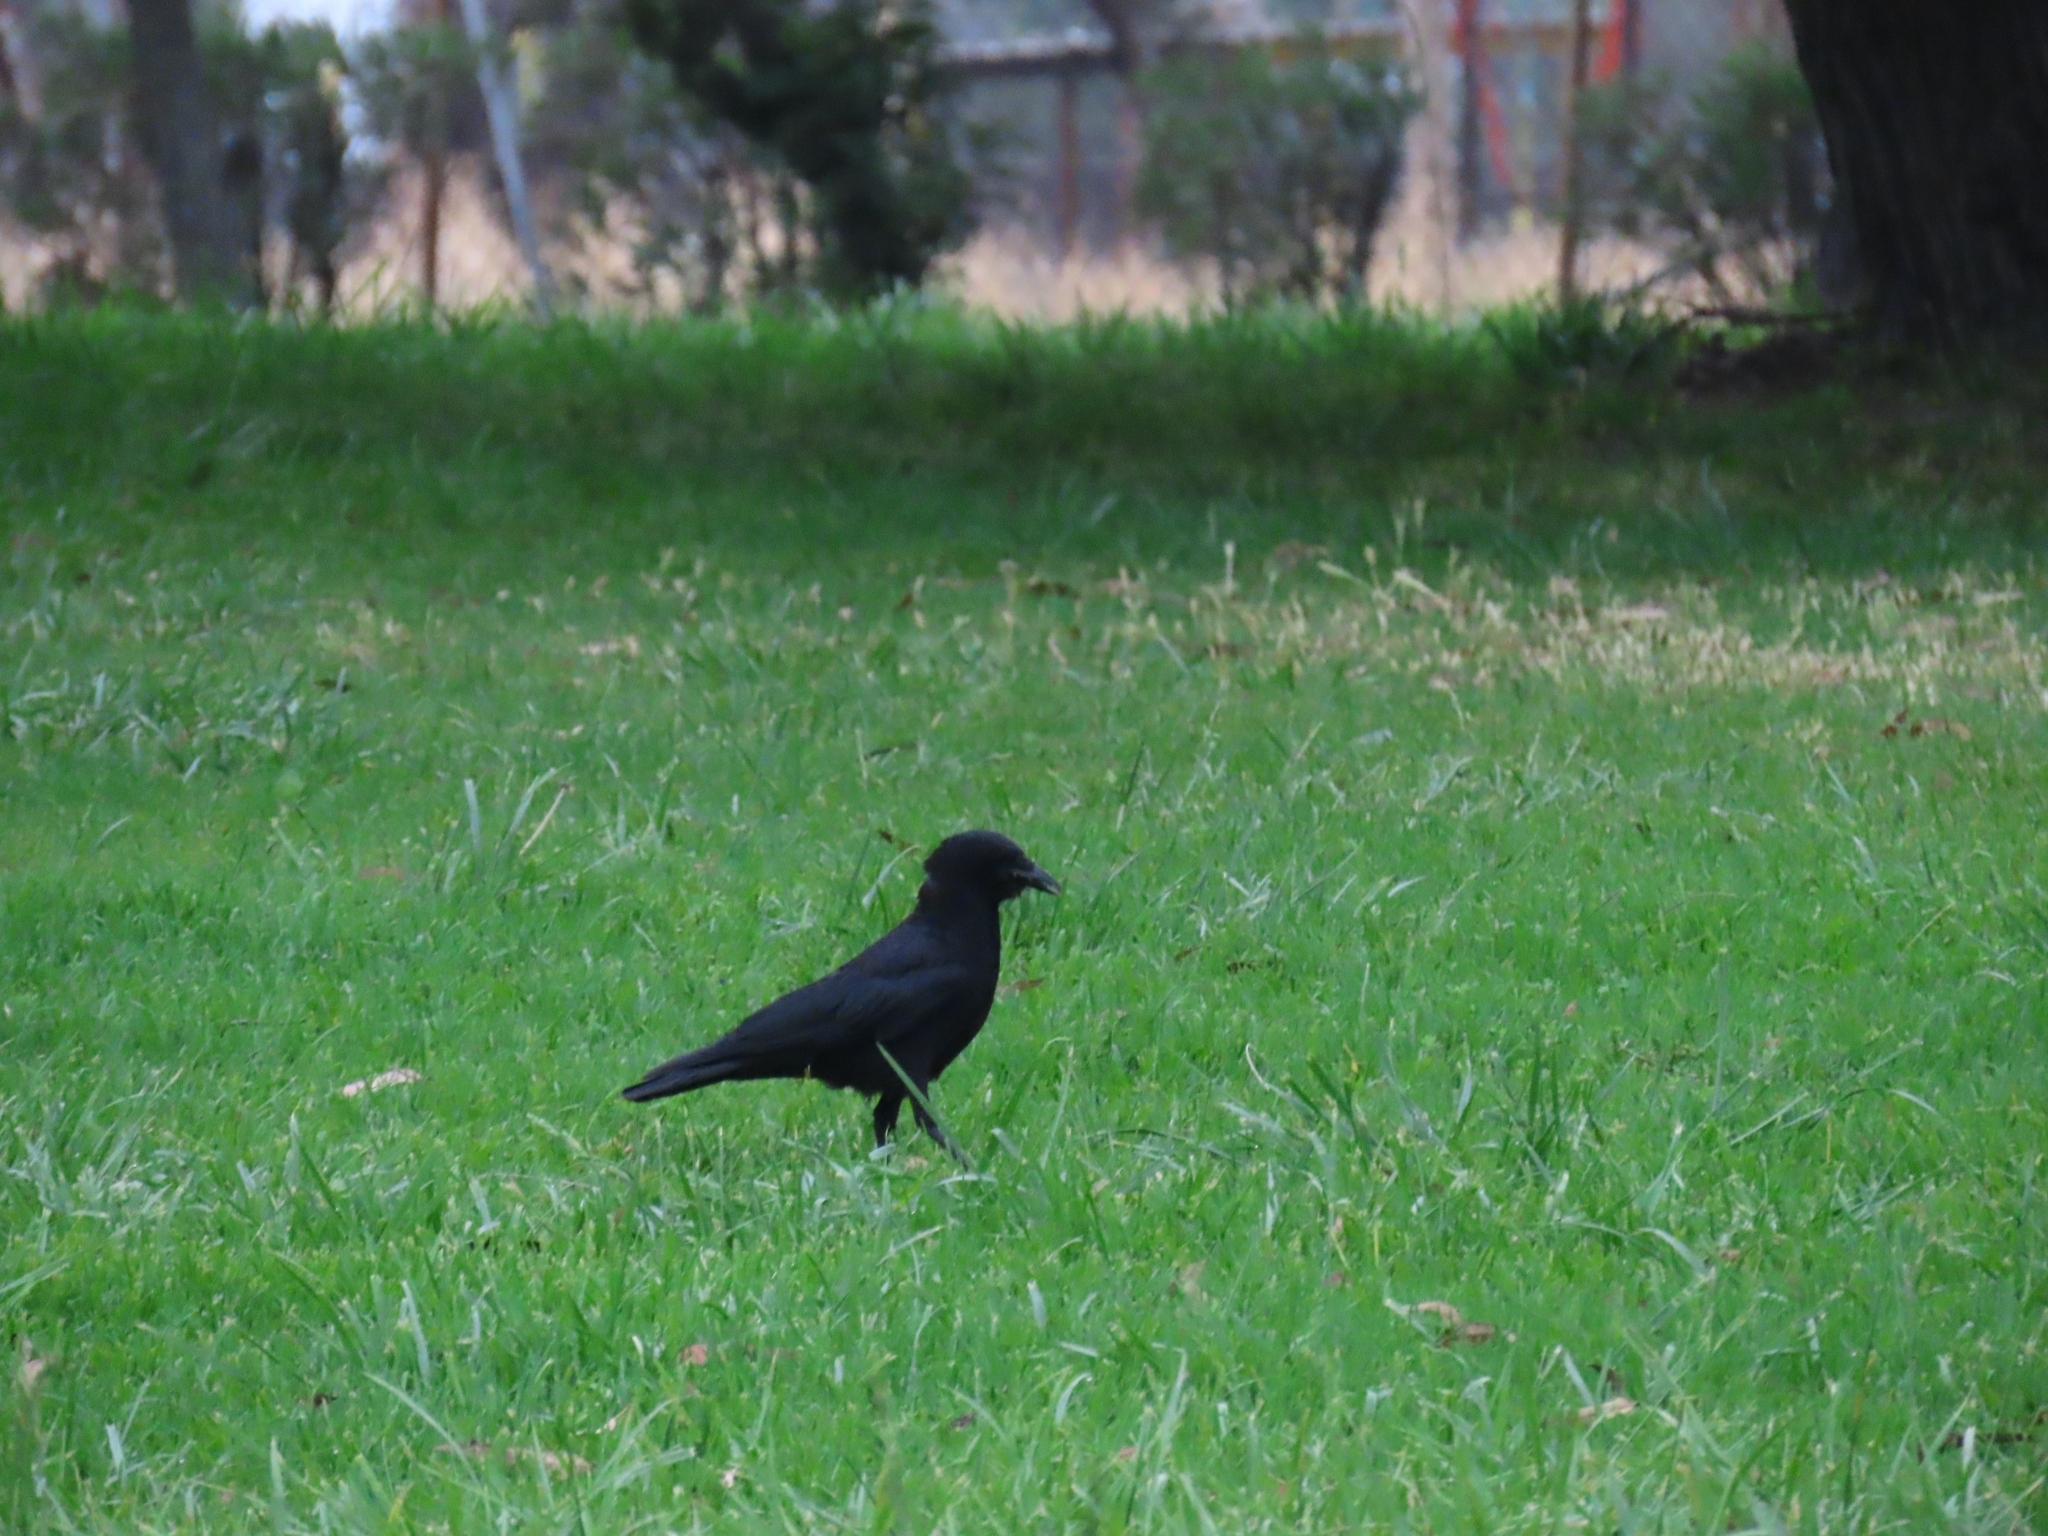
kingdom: Animalia
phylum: Chordata
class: Aves
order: Passeriformes
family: Corvidae
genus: Corvus
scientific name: Corvus brachyrhynchos
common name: American crow
